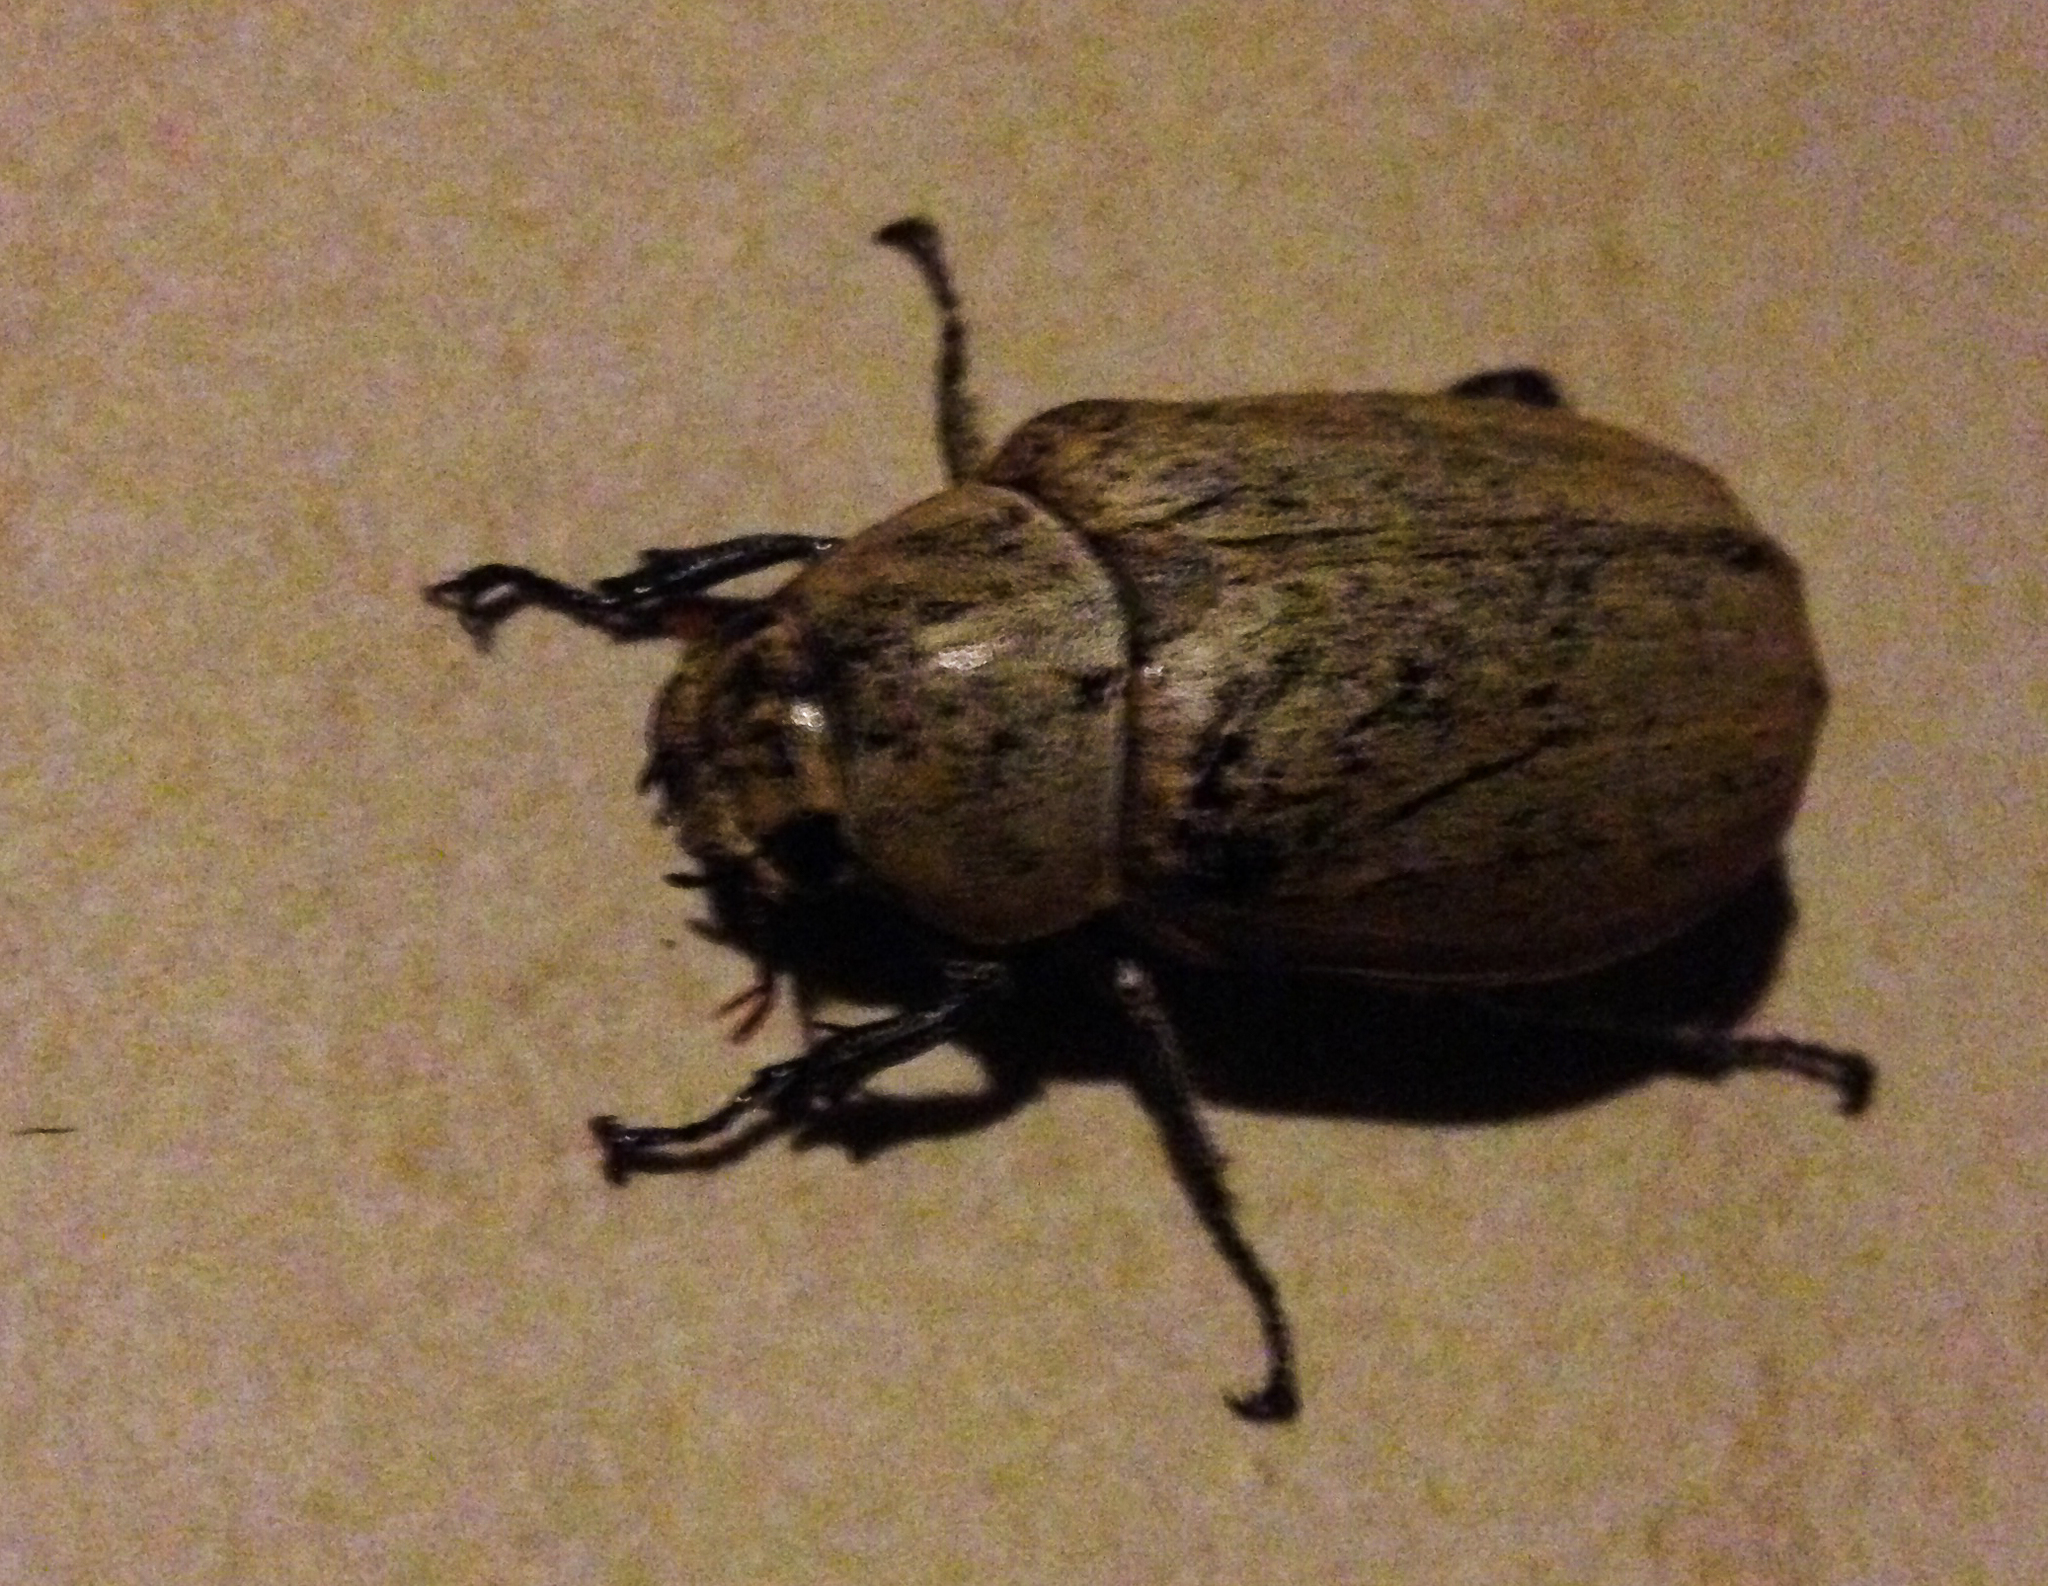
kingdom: Animalia
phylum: Arthropoda
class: Insecta
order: Coleoptera
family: Scarabaeidae
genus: Lepidiota
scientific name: Lepidiota stigma
